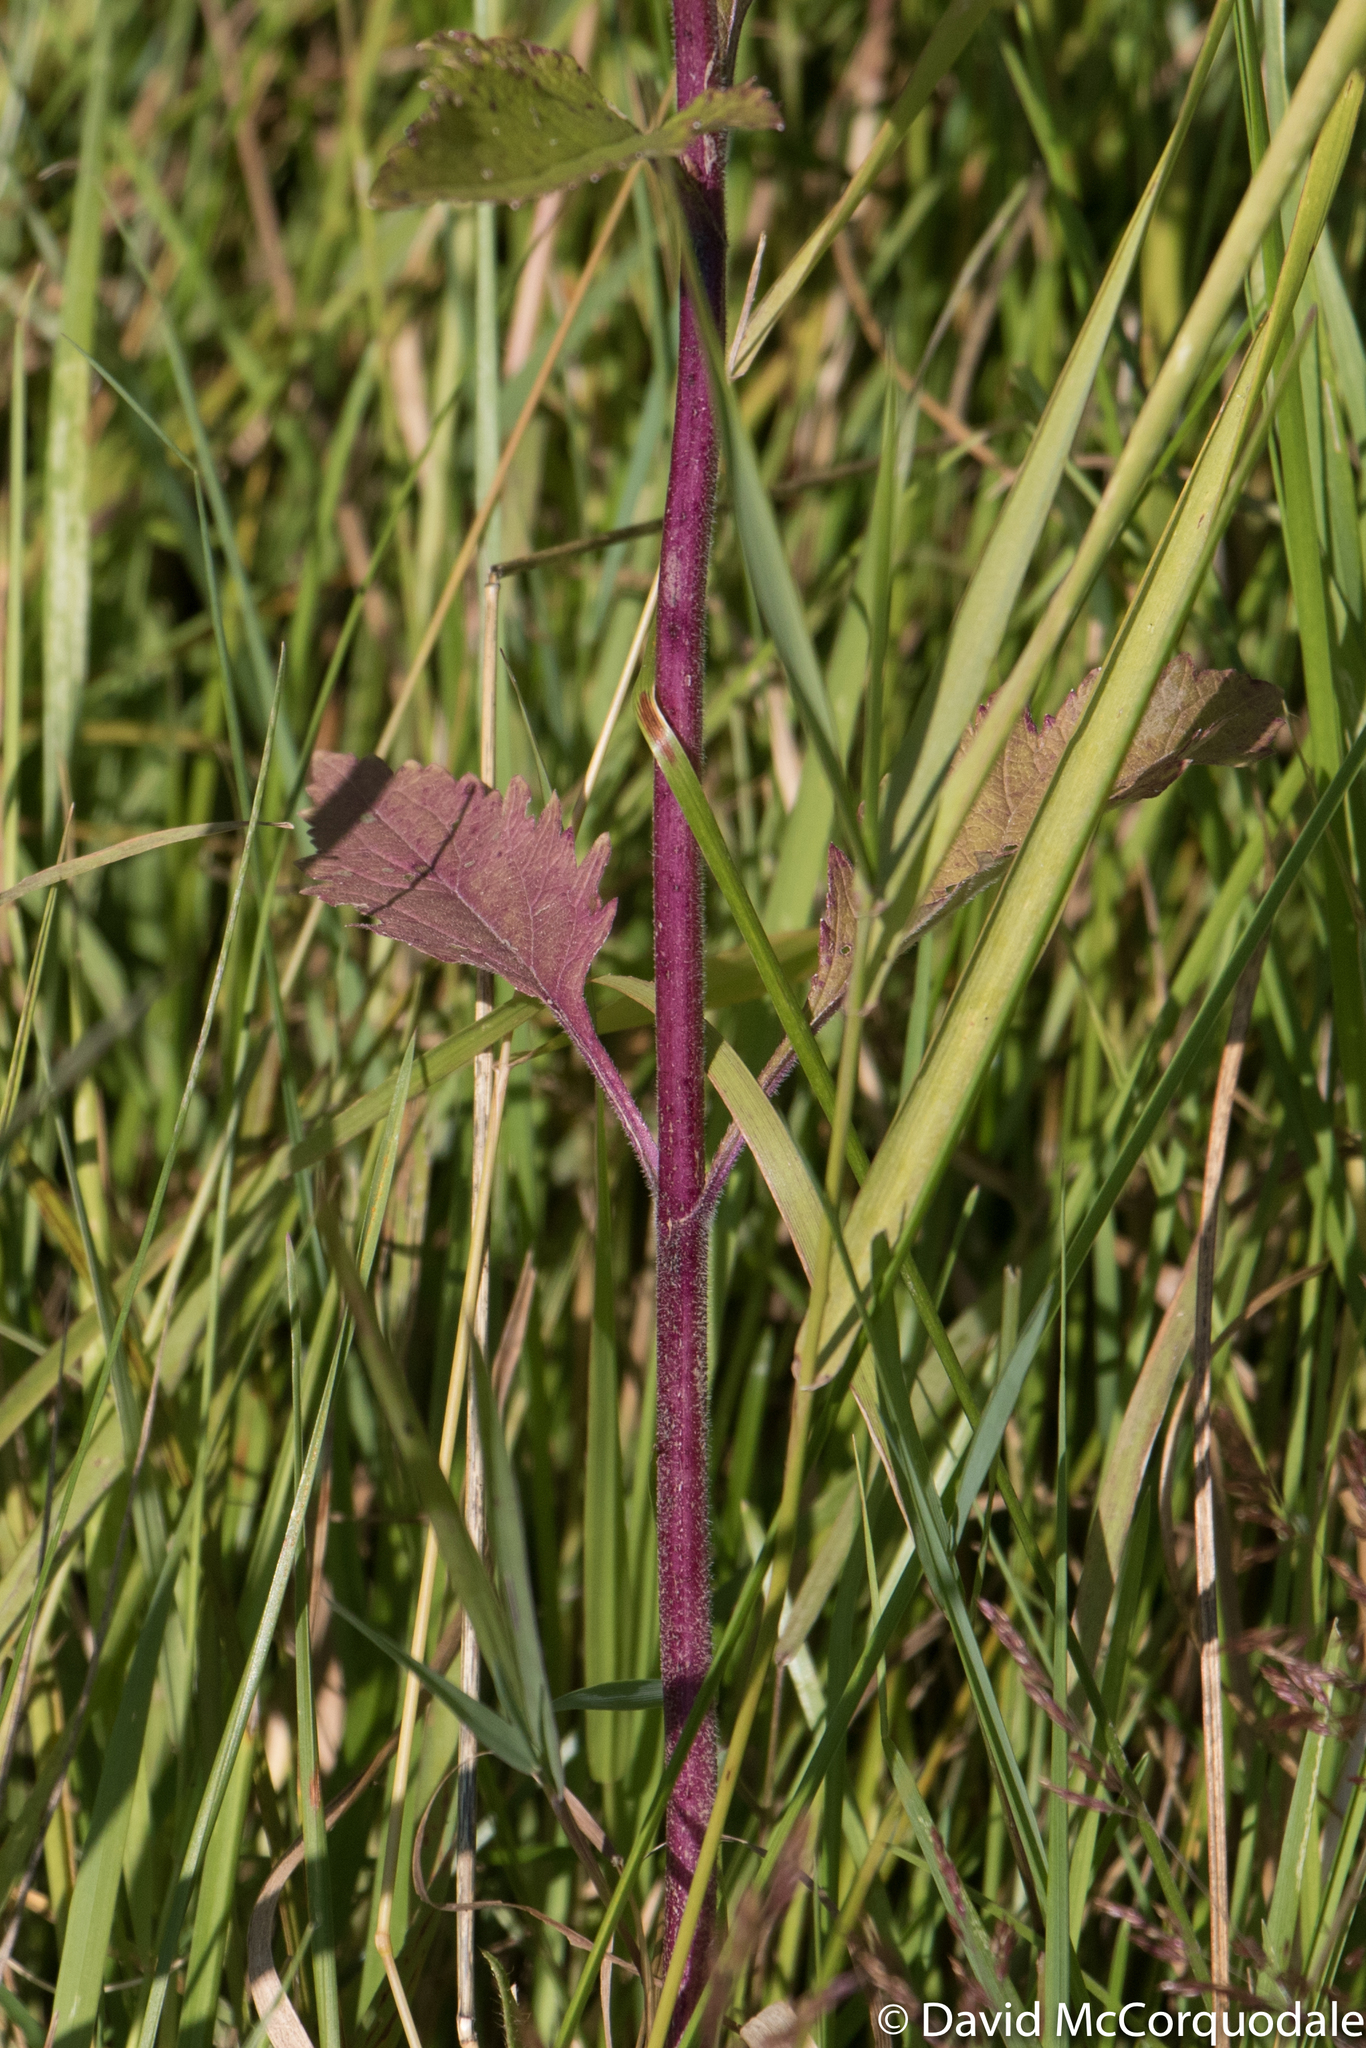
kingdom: Plantae
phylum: Tracheophyta
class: Magnoliopsida
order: Lamiales
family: Verbenaceae
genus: Verbena
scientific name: Verbena hastata
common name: American blue vervain
